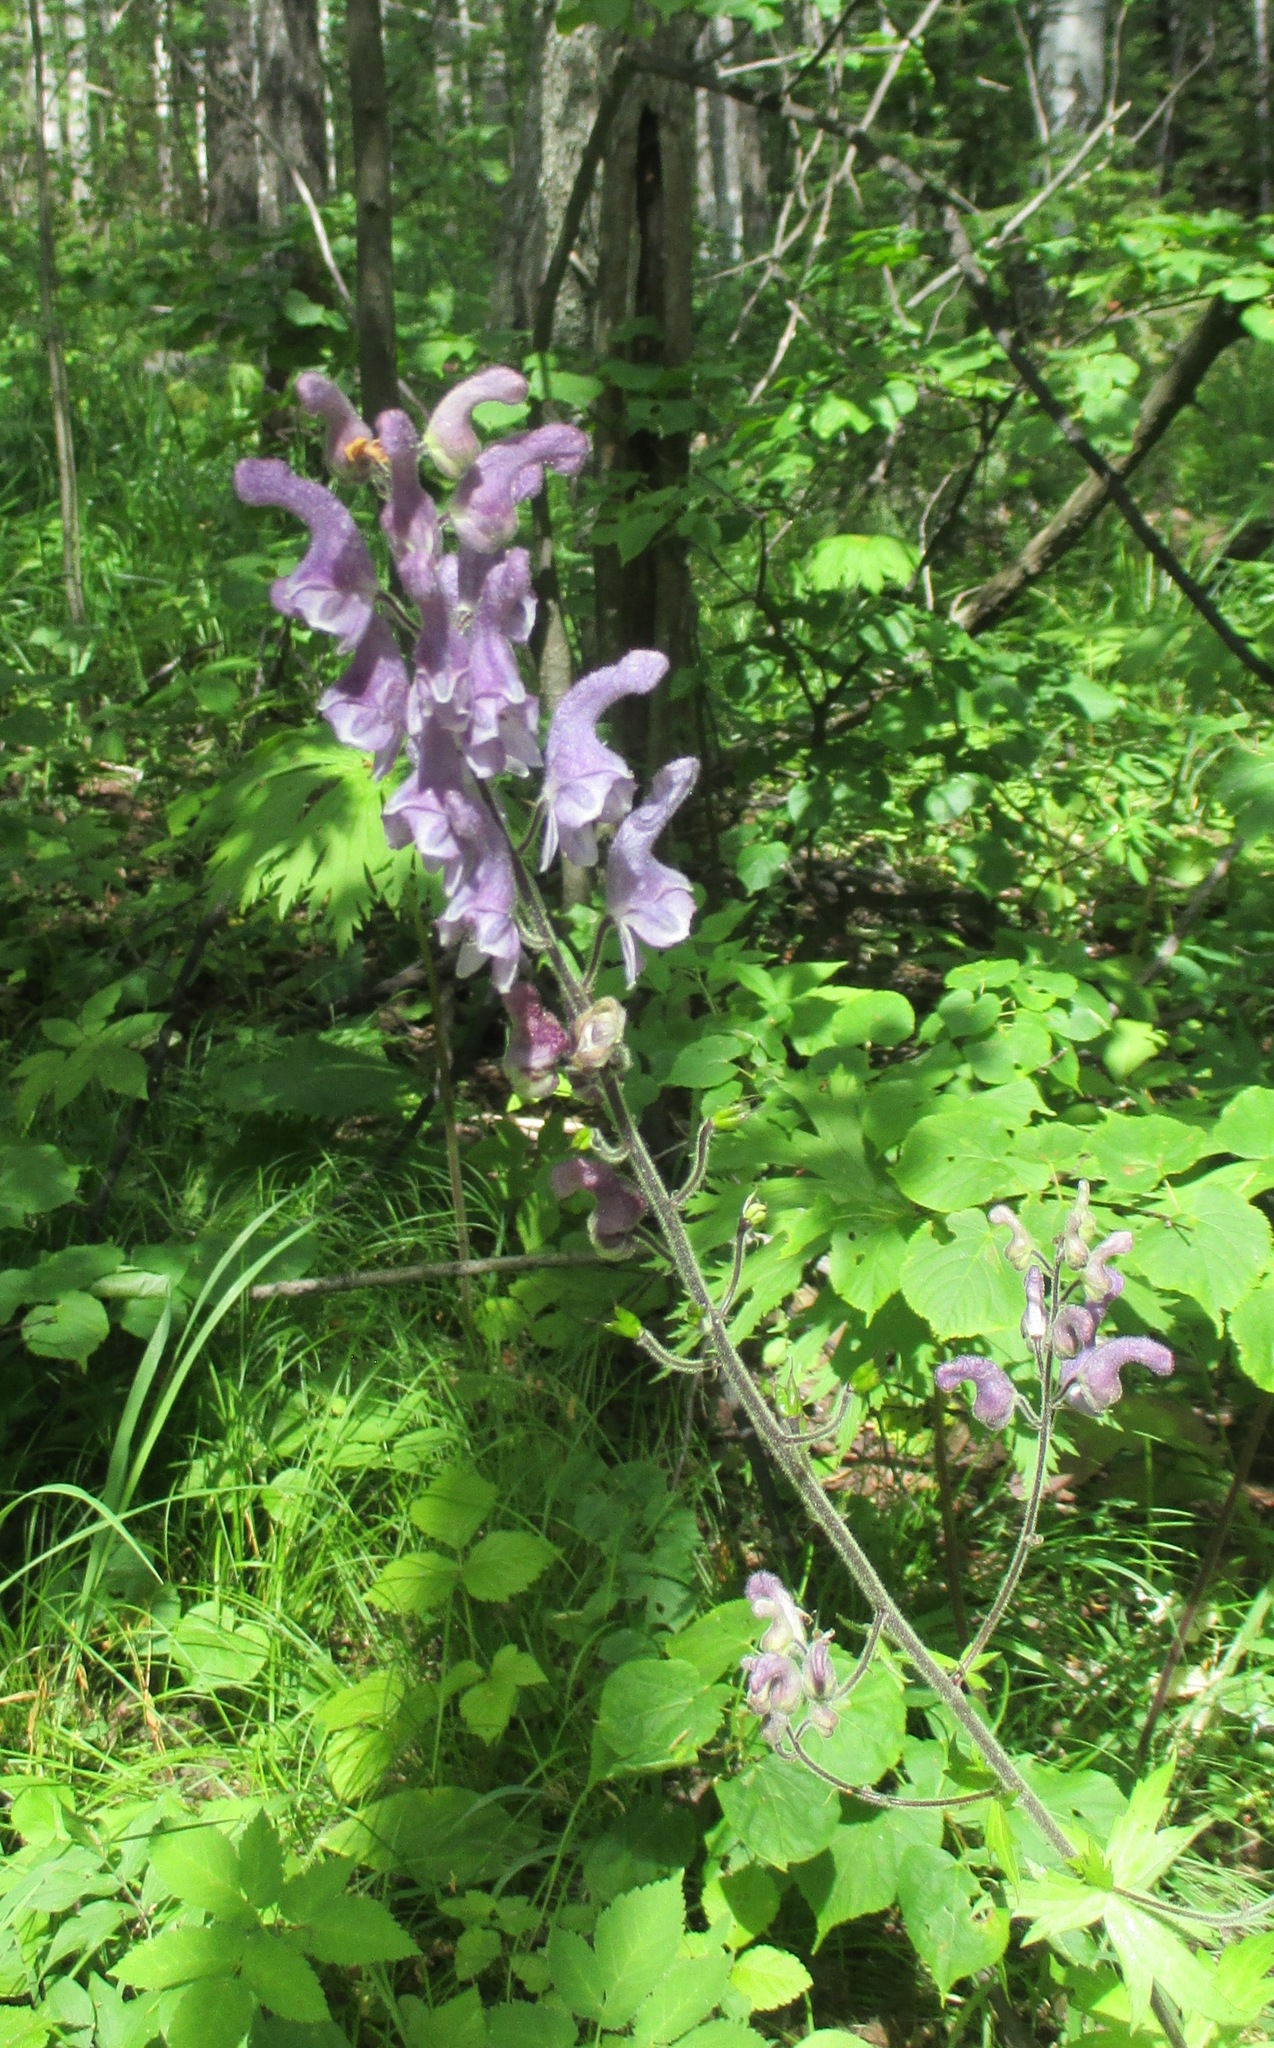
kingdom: Plantae
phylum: Tracheophyta
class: Magnoliopsida
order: Ranunculales
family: Ranunculaceae
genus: Aconitum
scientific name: Aconitum septentrionale
